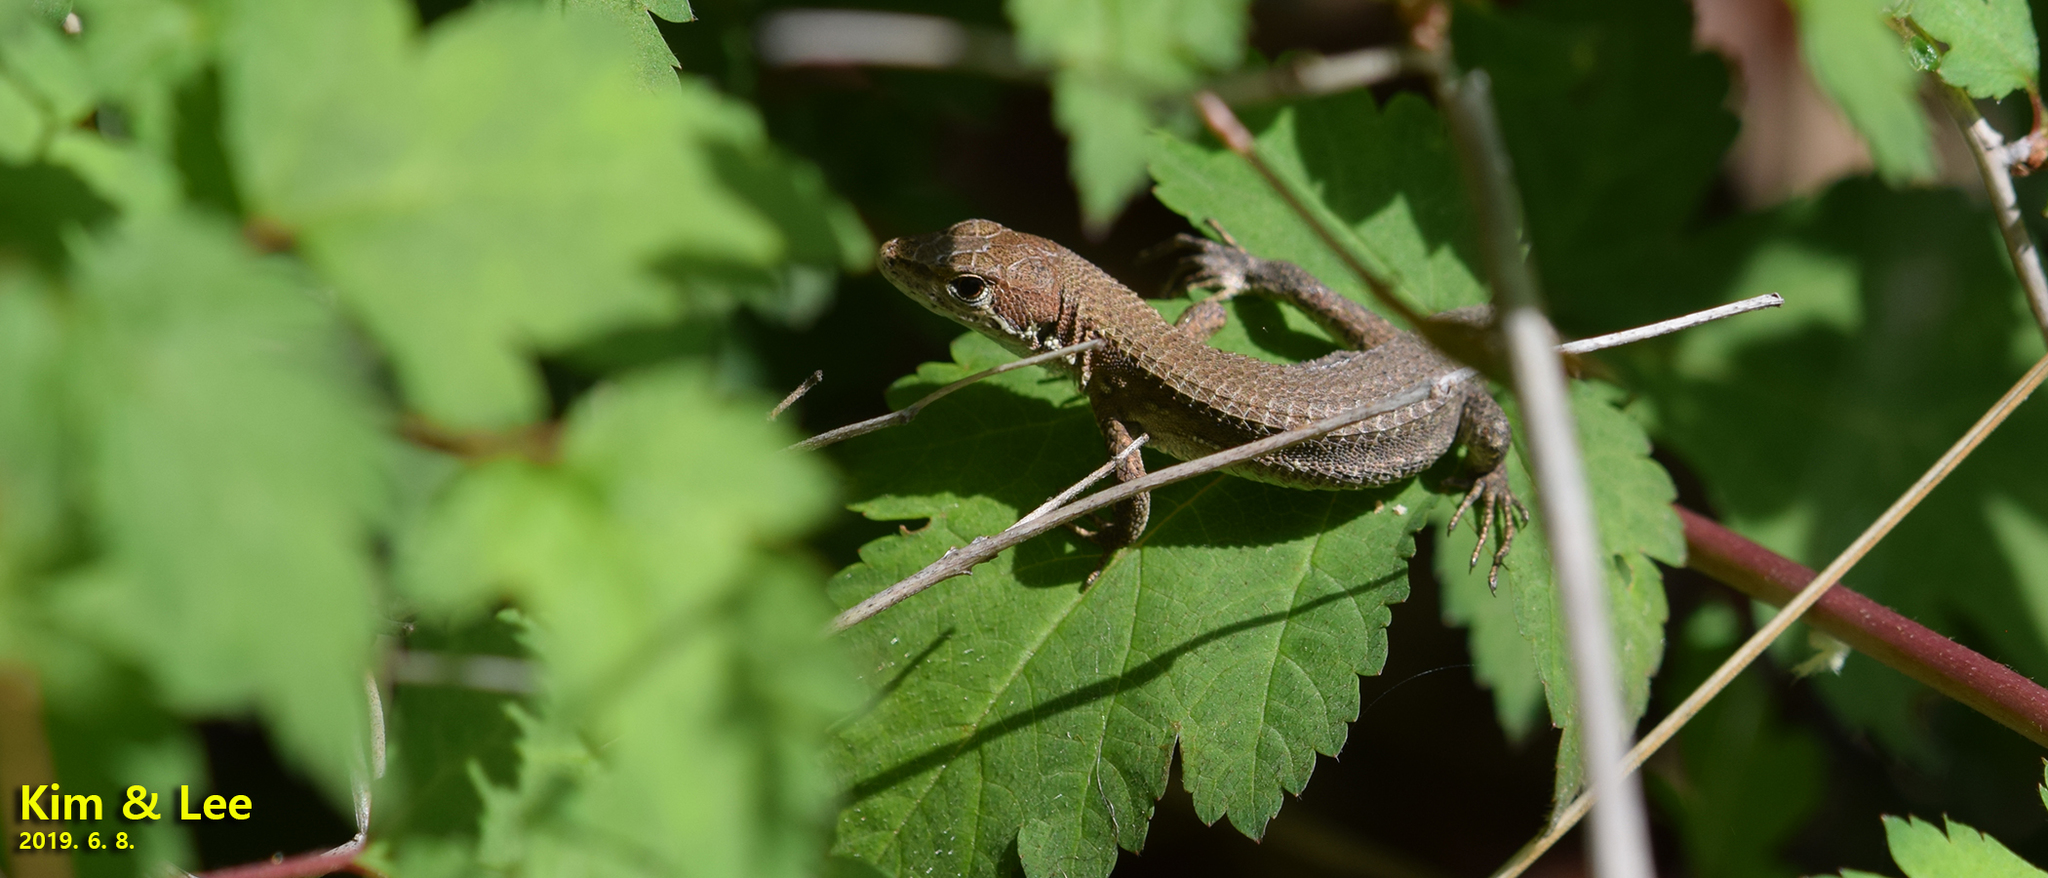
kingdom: Animalia
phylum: Chordata
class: Squamata
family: Lacertidae
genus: Takydromus
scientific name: Takydromus amurensis
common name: Amur grass lizard
